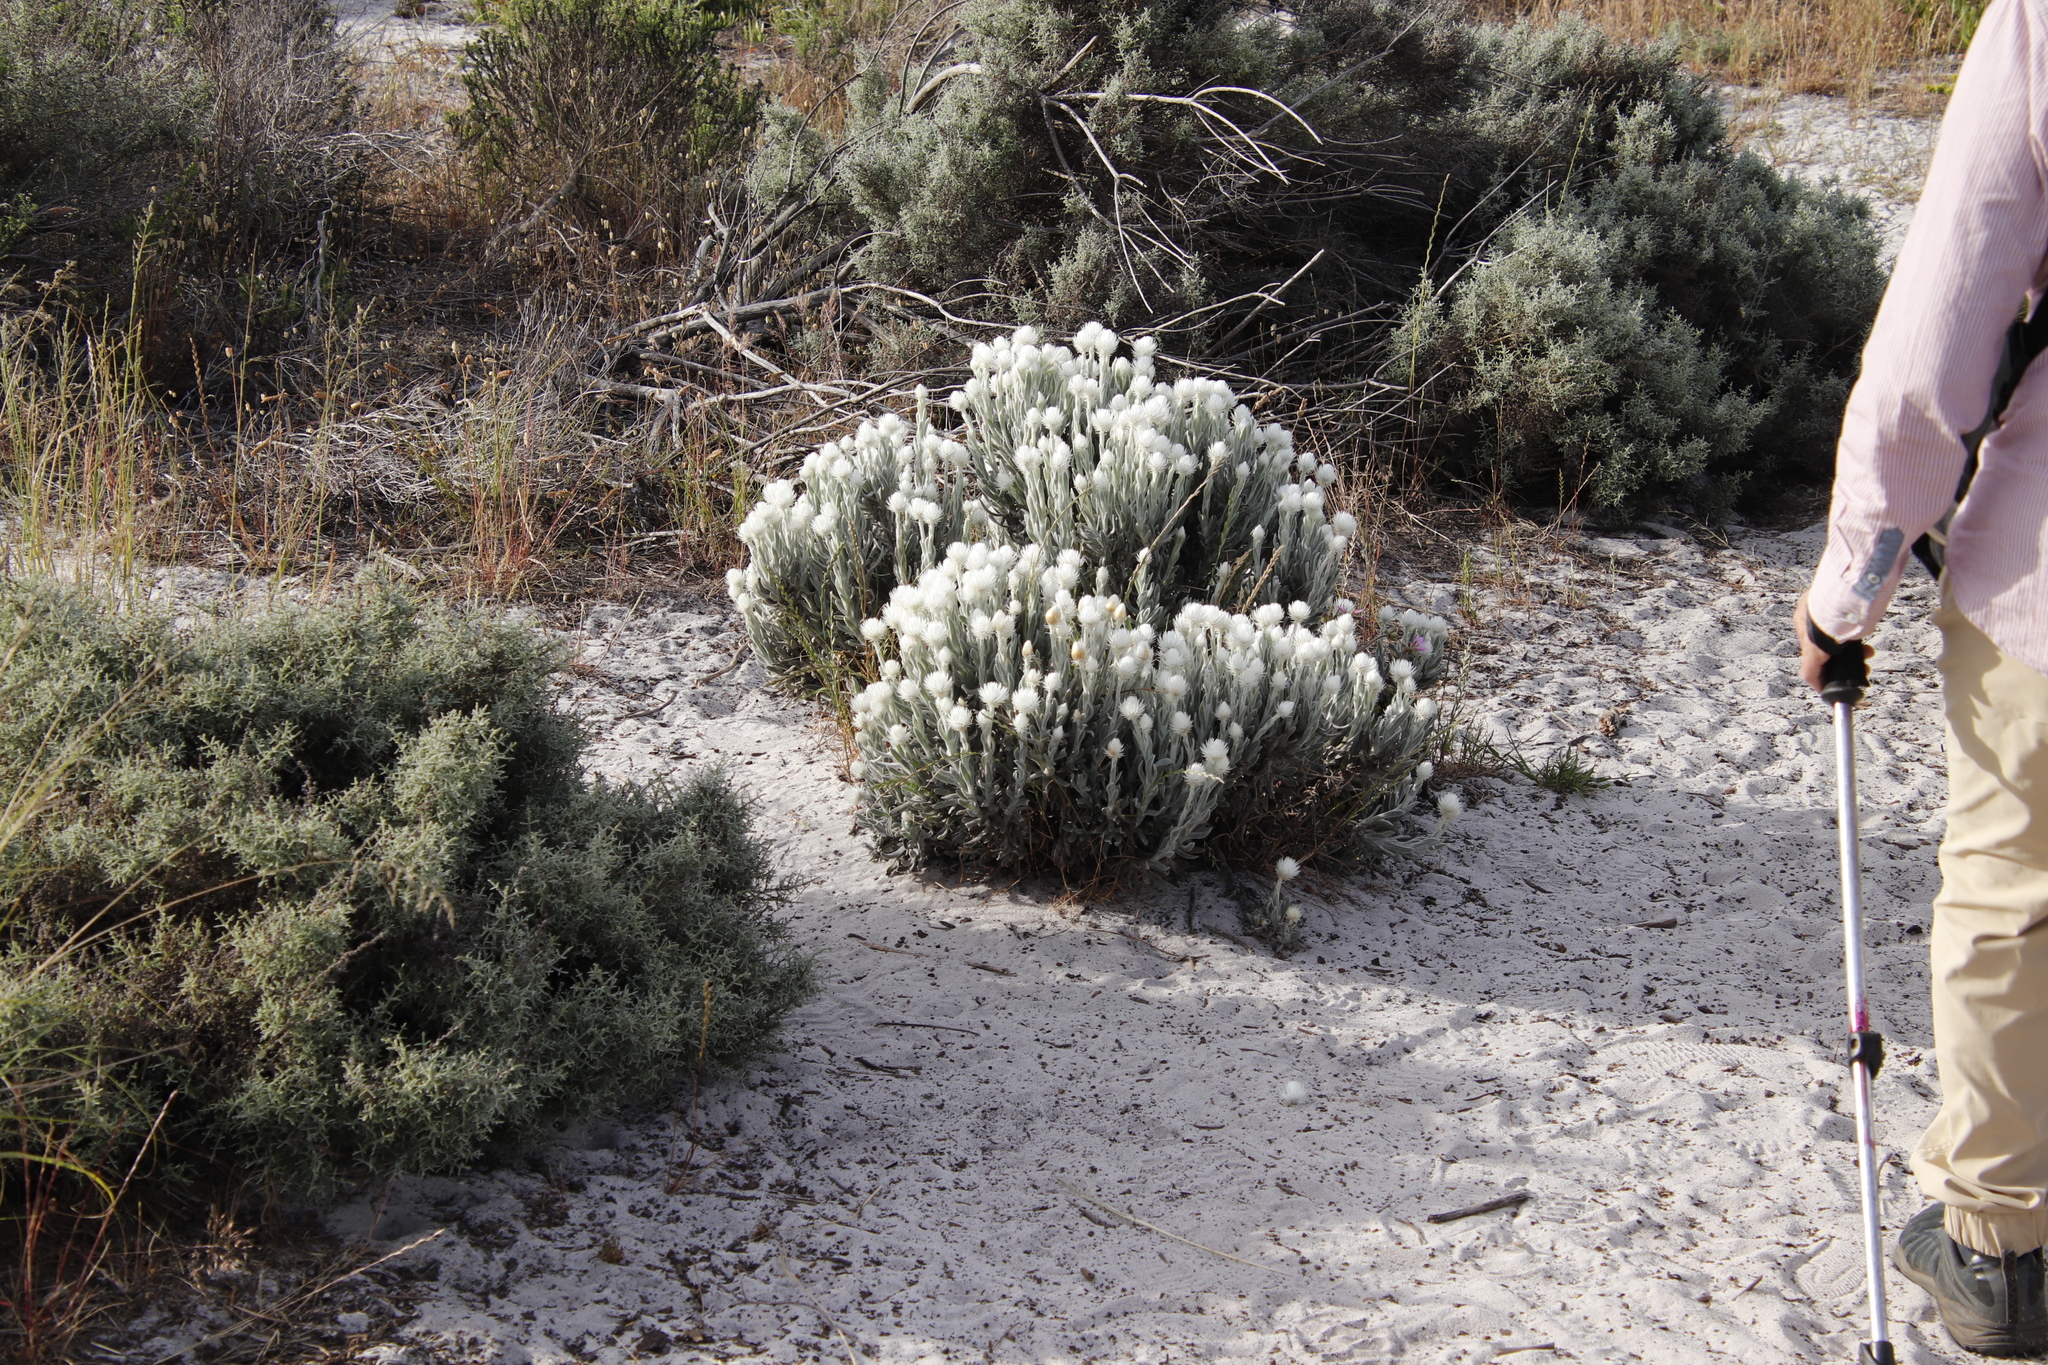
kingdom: Plantae
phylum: Tracheophyta
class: Magnoliopsida
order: Asterales
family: Asteraceae
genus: Syncarpha
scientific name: Syncarpha vestita
